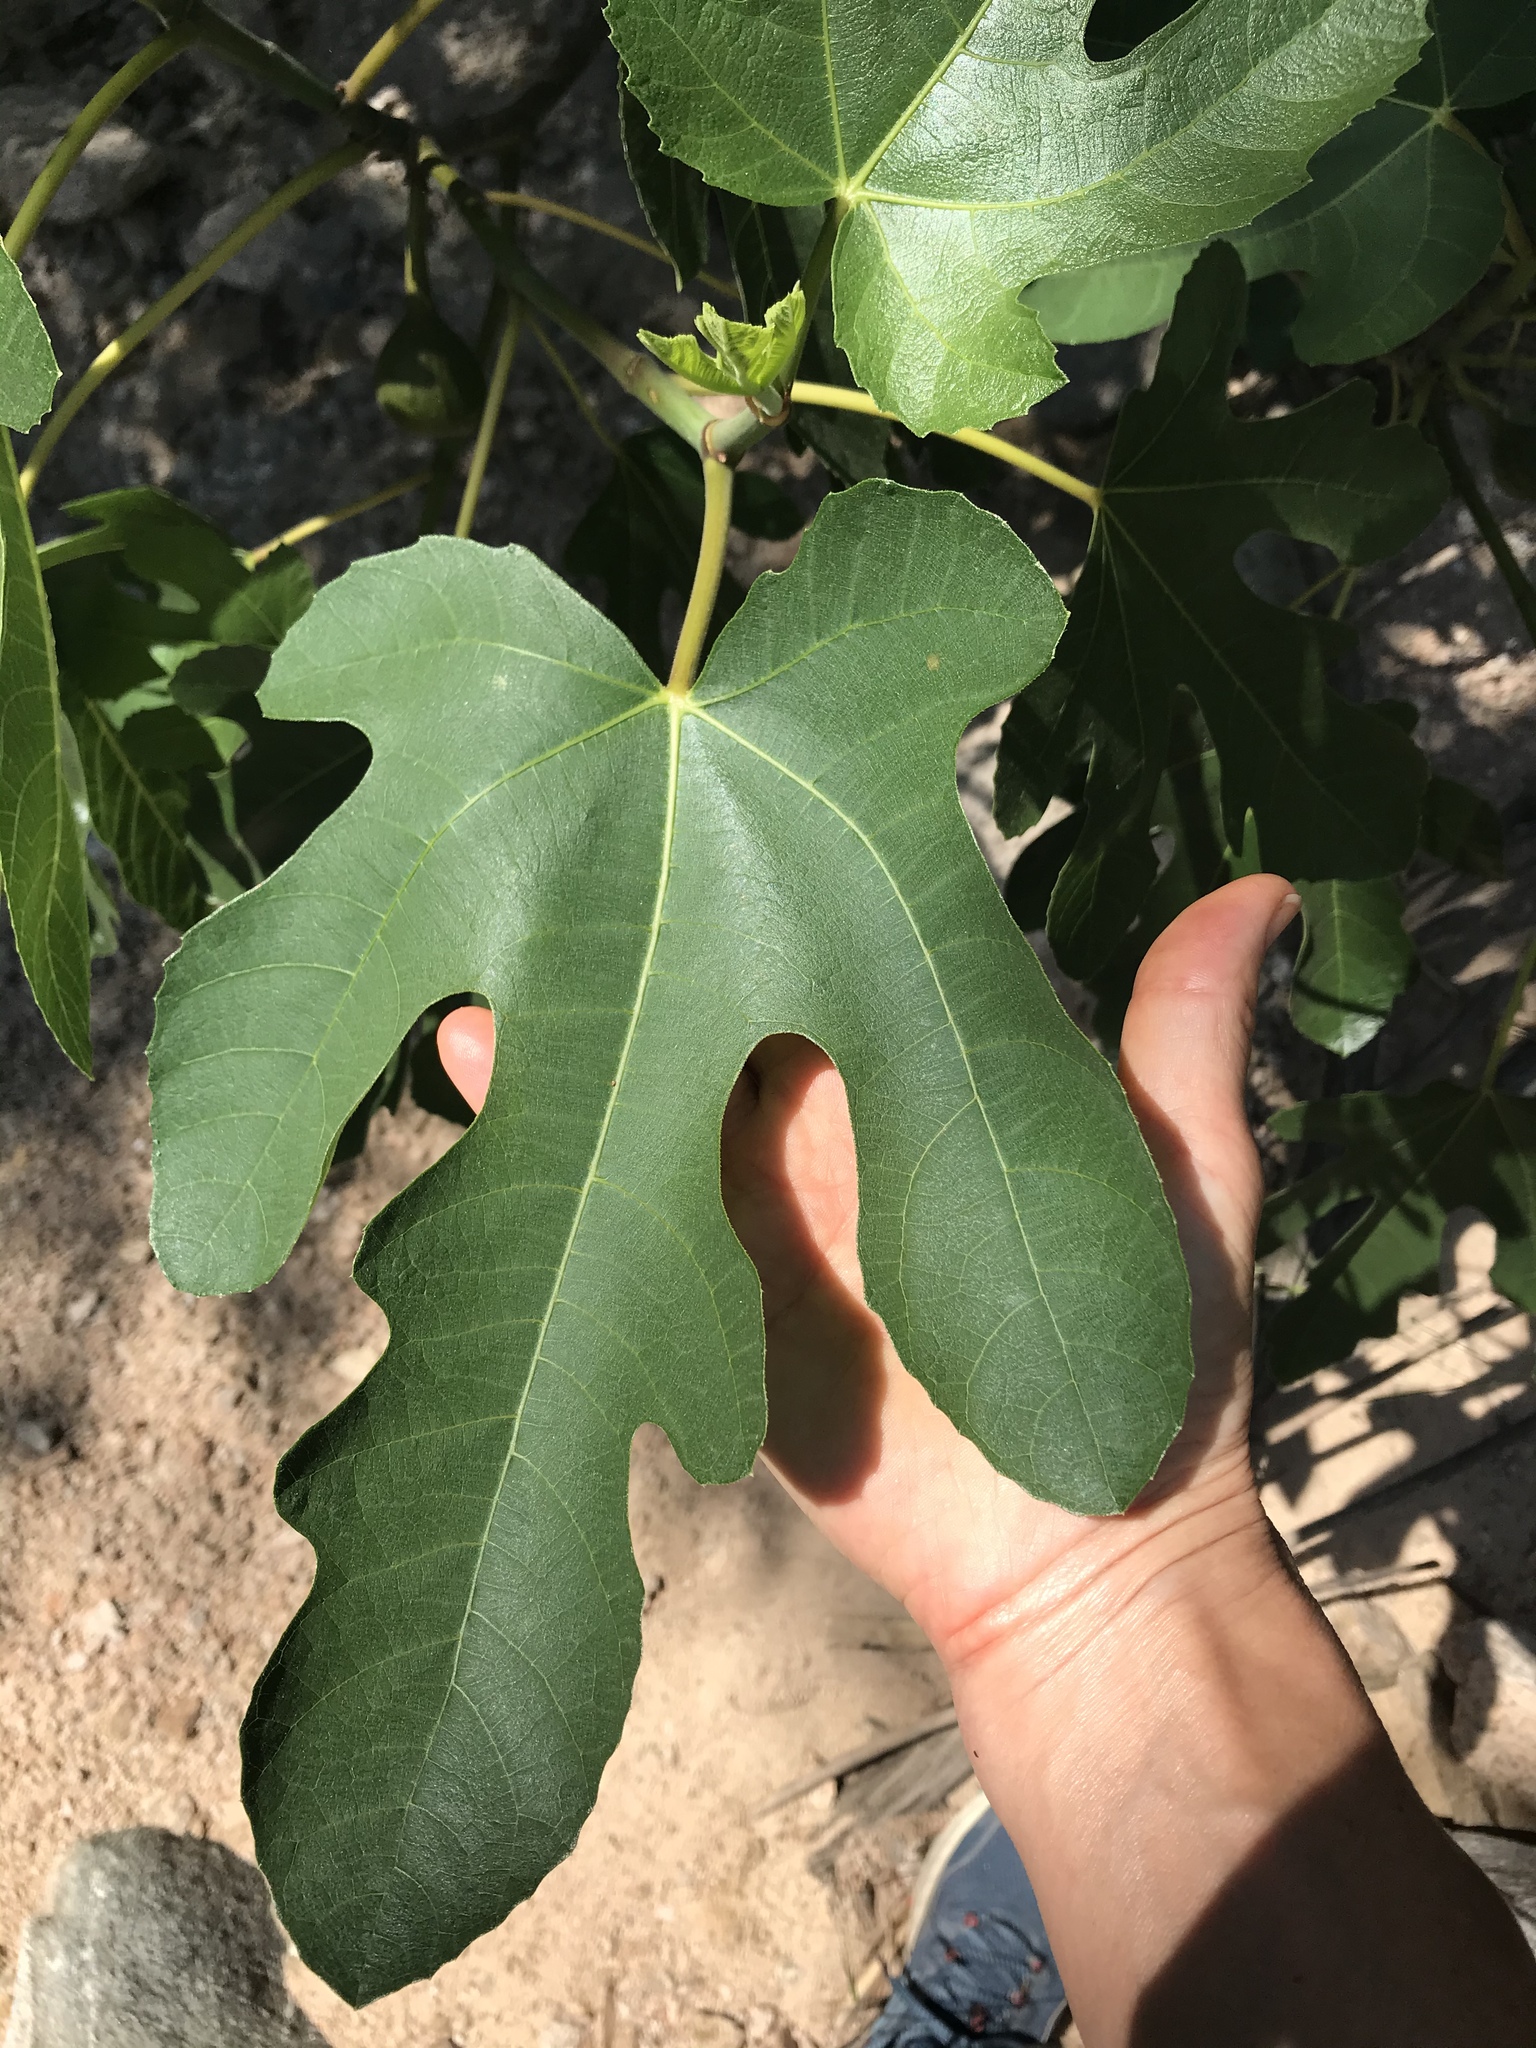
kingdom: Plantae
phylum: Tracheophyta
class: Magnoliopsida
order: Rosales
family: Moraceae
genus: Ficus
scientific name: Ficus carica
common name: Fig
